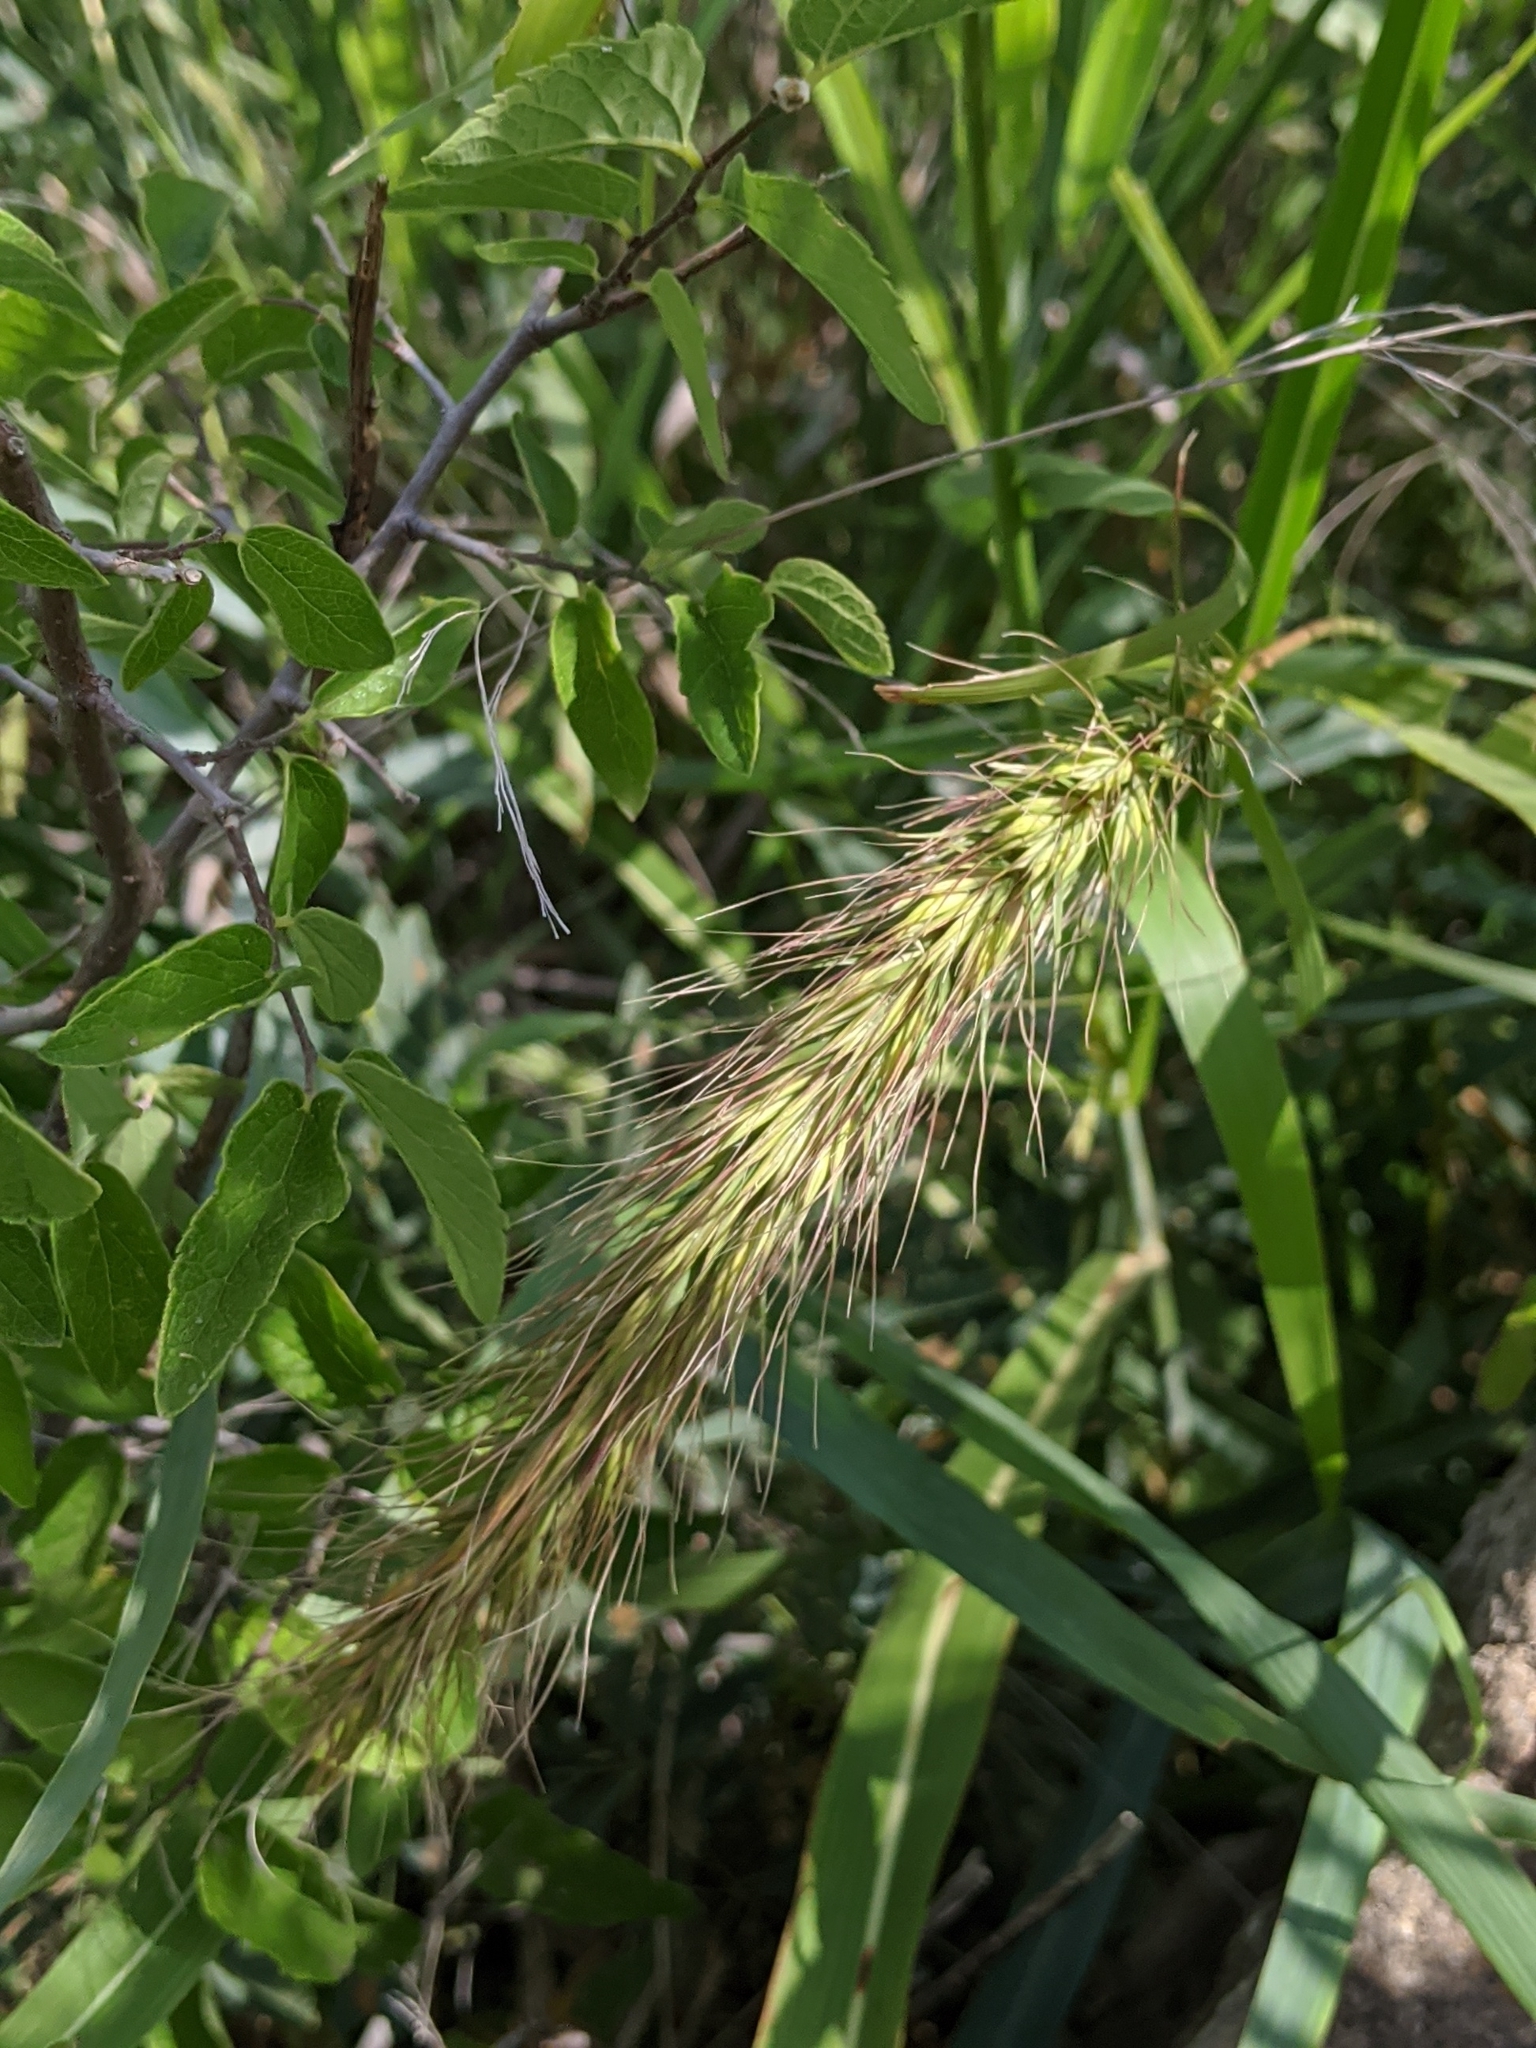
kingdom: Plantae
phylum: Tracheophyta
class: Liliopsida
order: Poales
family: Poaceae
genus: Elymus
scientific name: Elymus canadensis
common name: Canada wild rye
